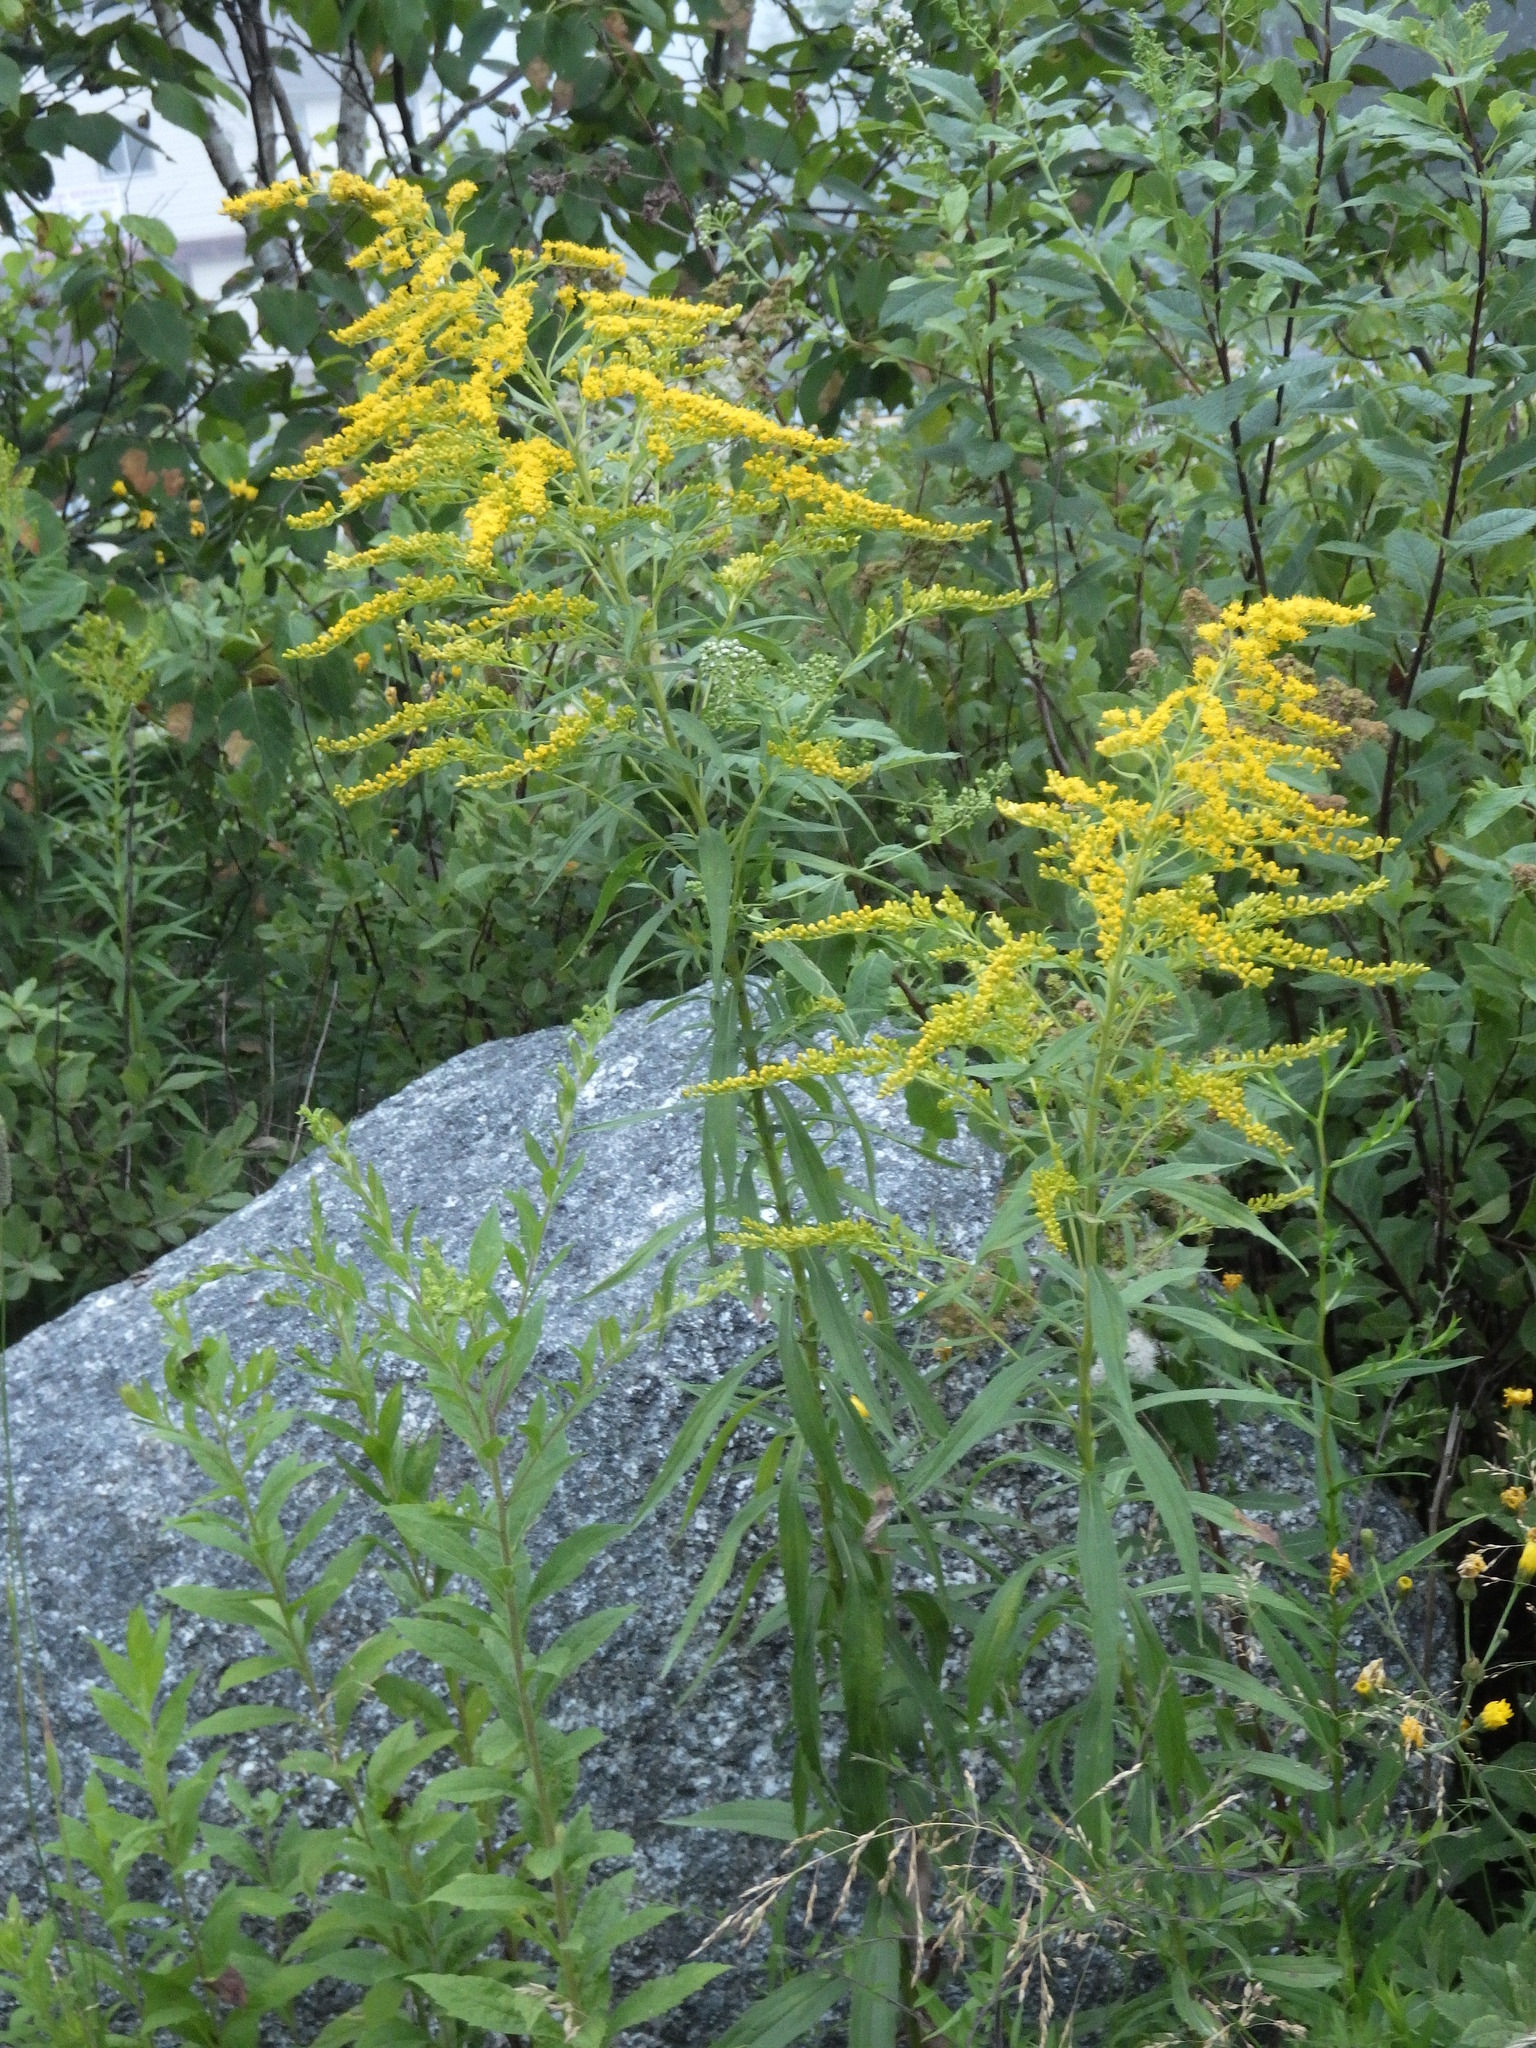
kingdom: Plantae
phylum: Tracheophyta
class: Magnoliopsida
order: Asterales
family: Asteraceae
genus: Solidago
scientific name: Solidago canadensis
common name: Canada goldenrod
